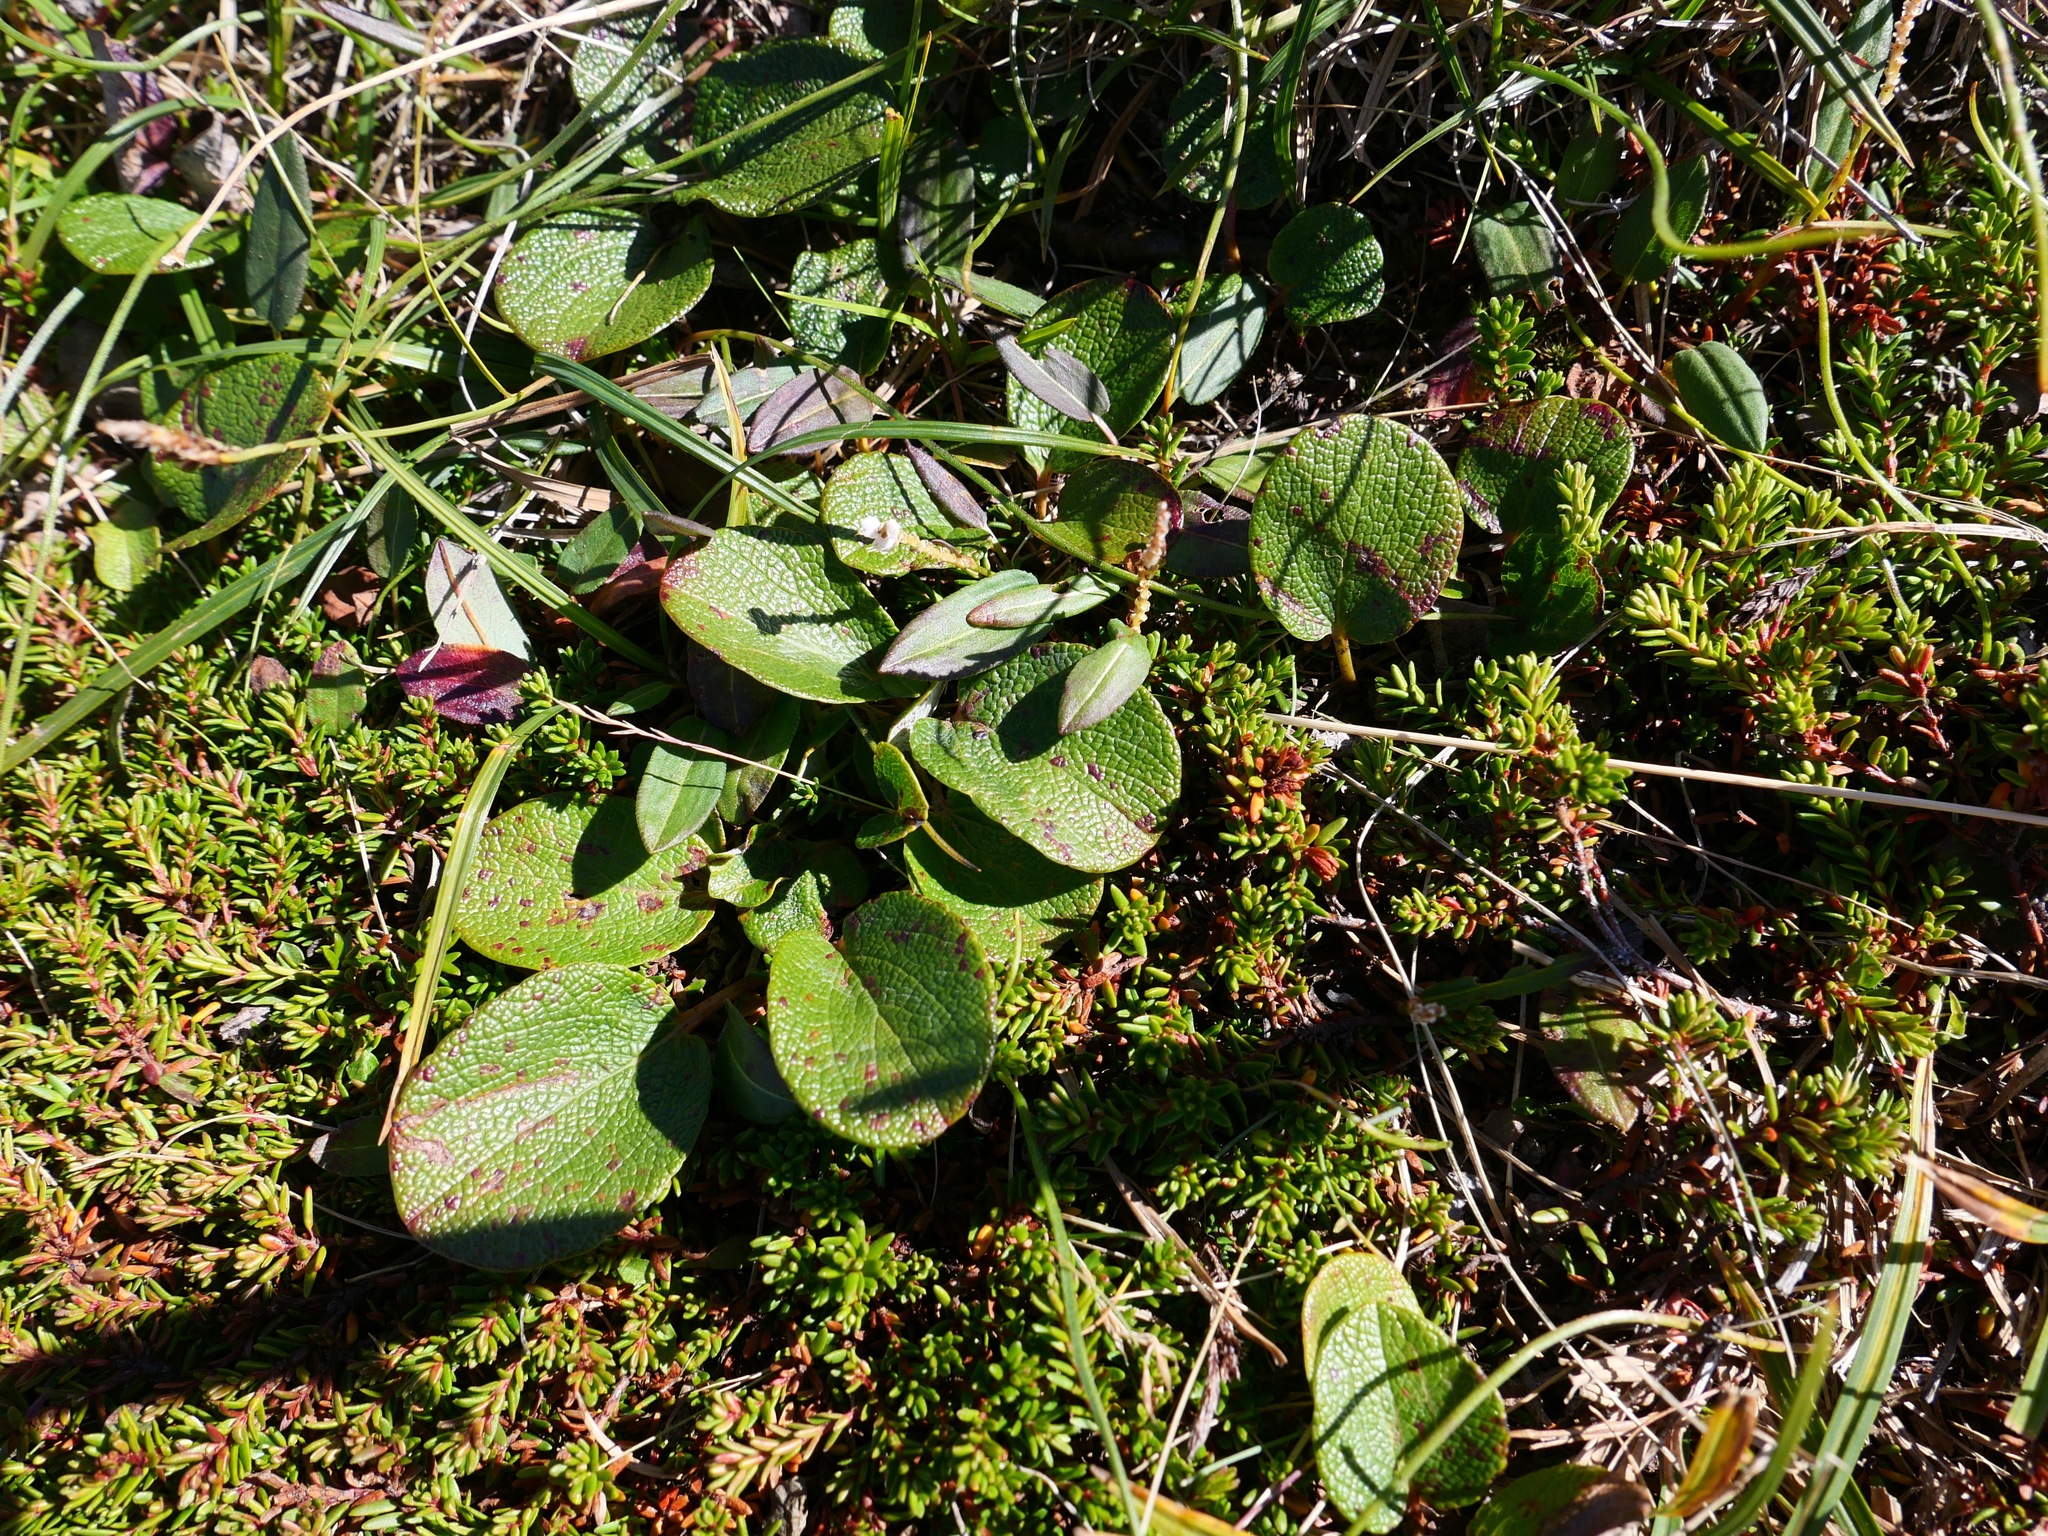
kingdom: Plantae
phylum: Tracheophyta
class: Magnoliopsida
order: Malpighiales
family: Salicaceae
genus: Salix
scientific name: Salix reticulata
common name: Net-leaved willow
